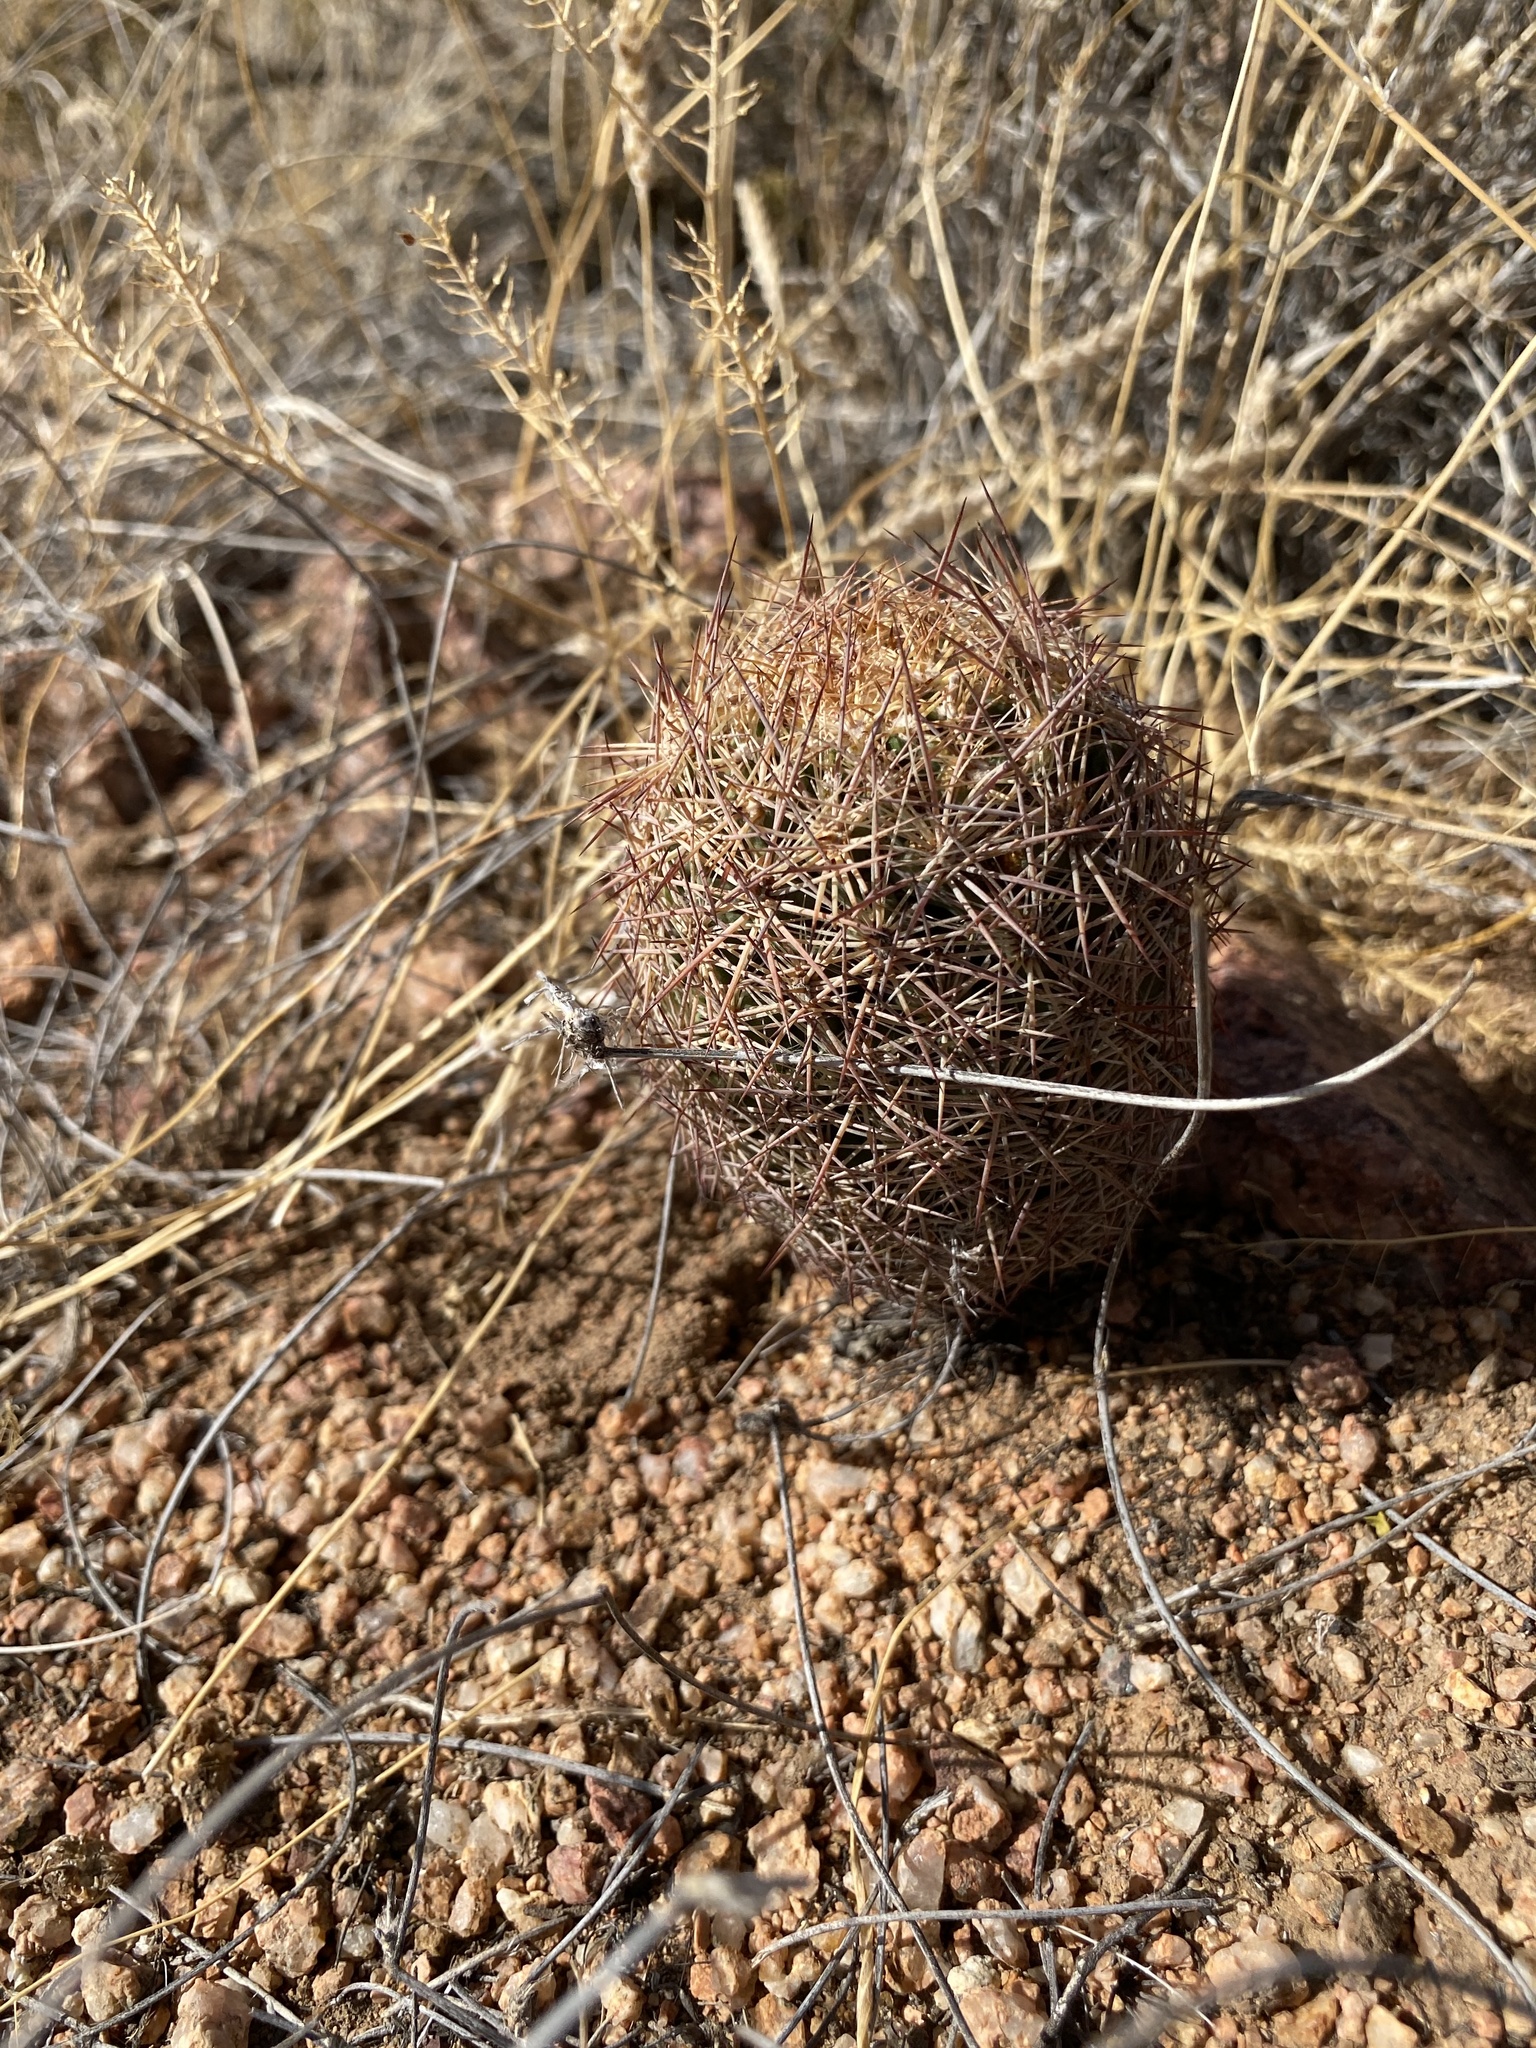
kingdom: Plantae
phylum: Tracheophyta
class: Magnoliopsida
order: Caryophyllales
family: Cactaceae
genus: Sclerocactus
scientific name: Sclerocactus intertextus
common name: White fish-hook cactus
